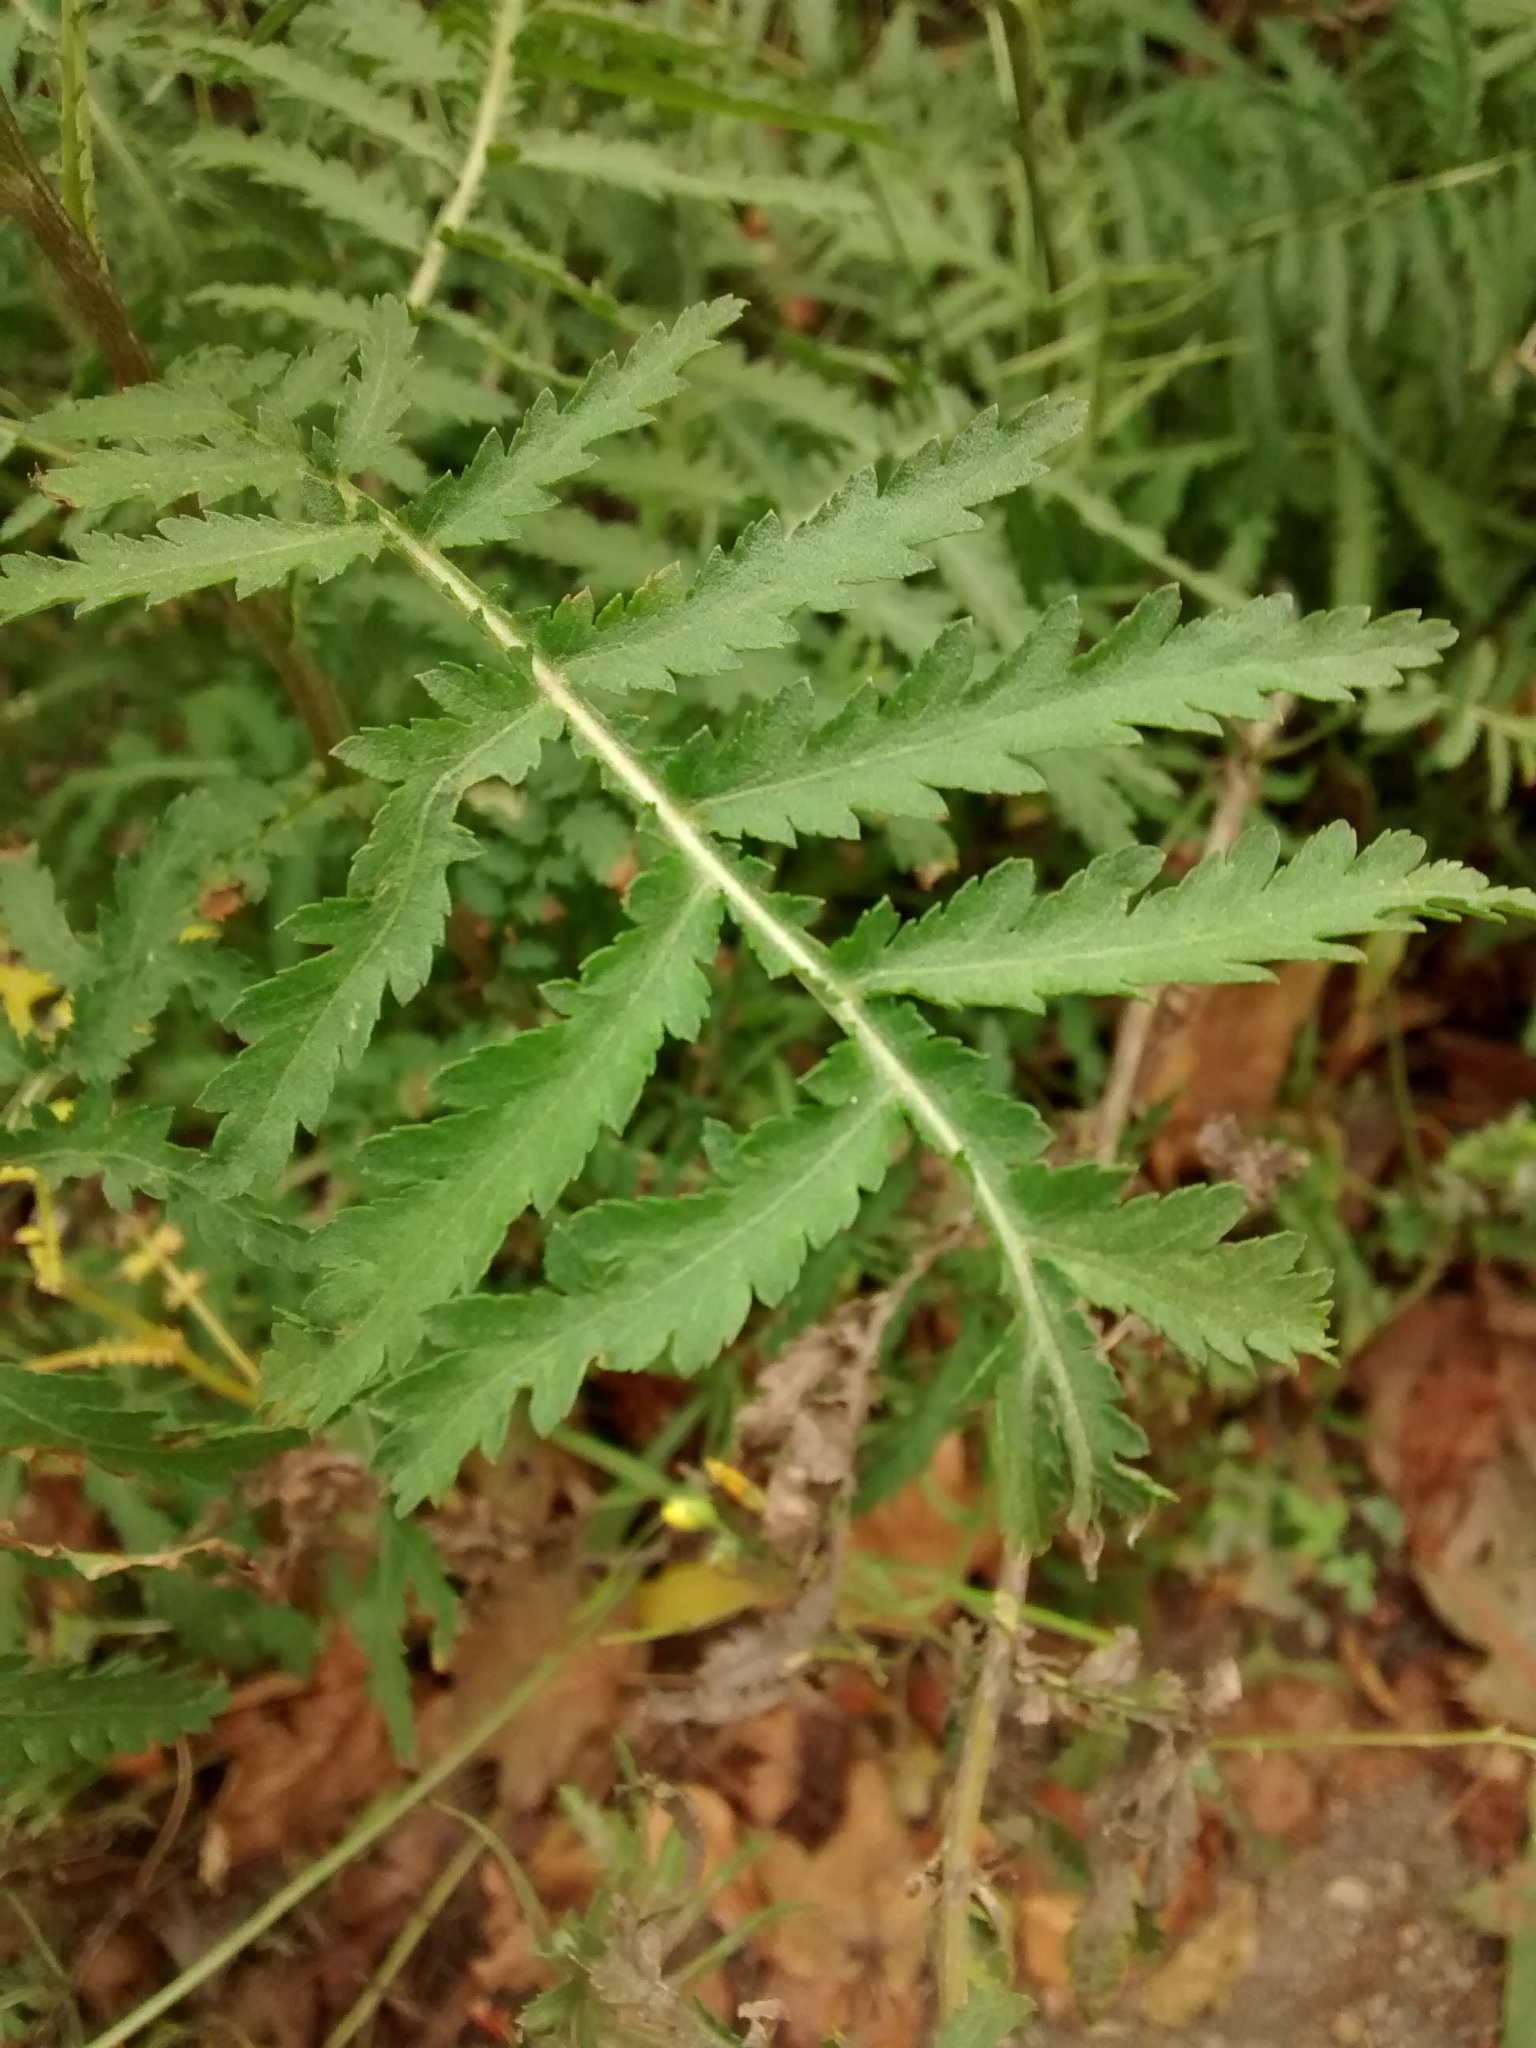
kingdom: Plantae
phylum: Tracheophyta
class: Magnoliopsida
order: Asterales
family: Asteraceae
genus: Tanacetum
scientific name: Tanacetum vulgare
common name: Common tansy
